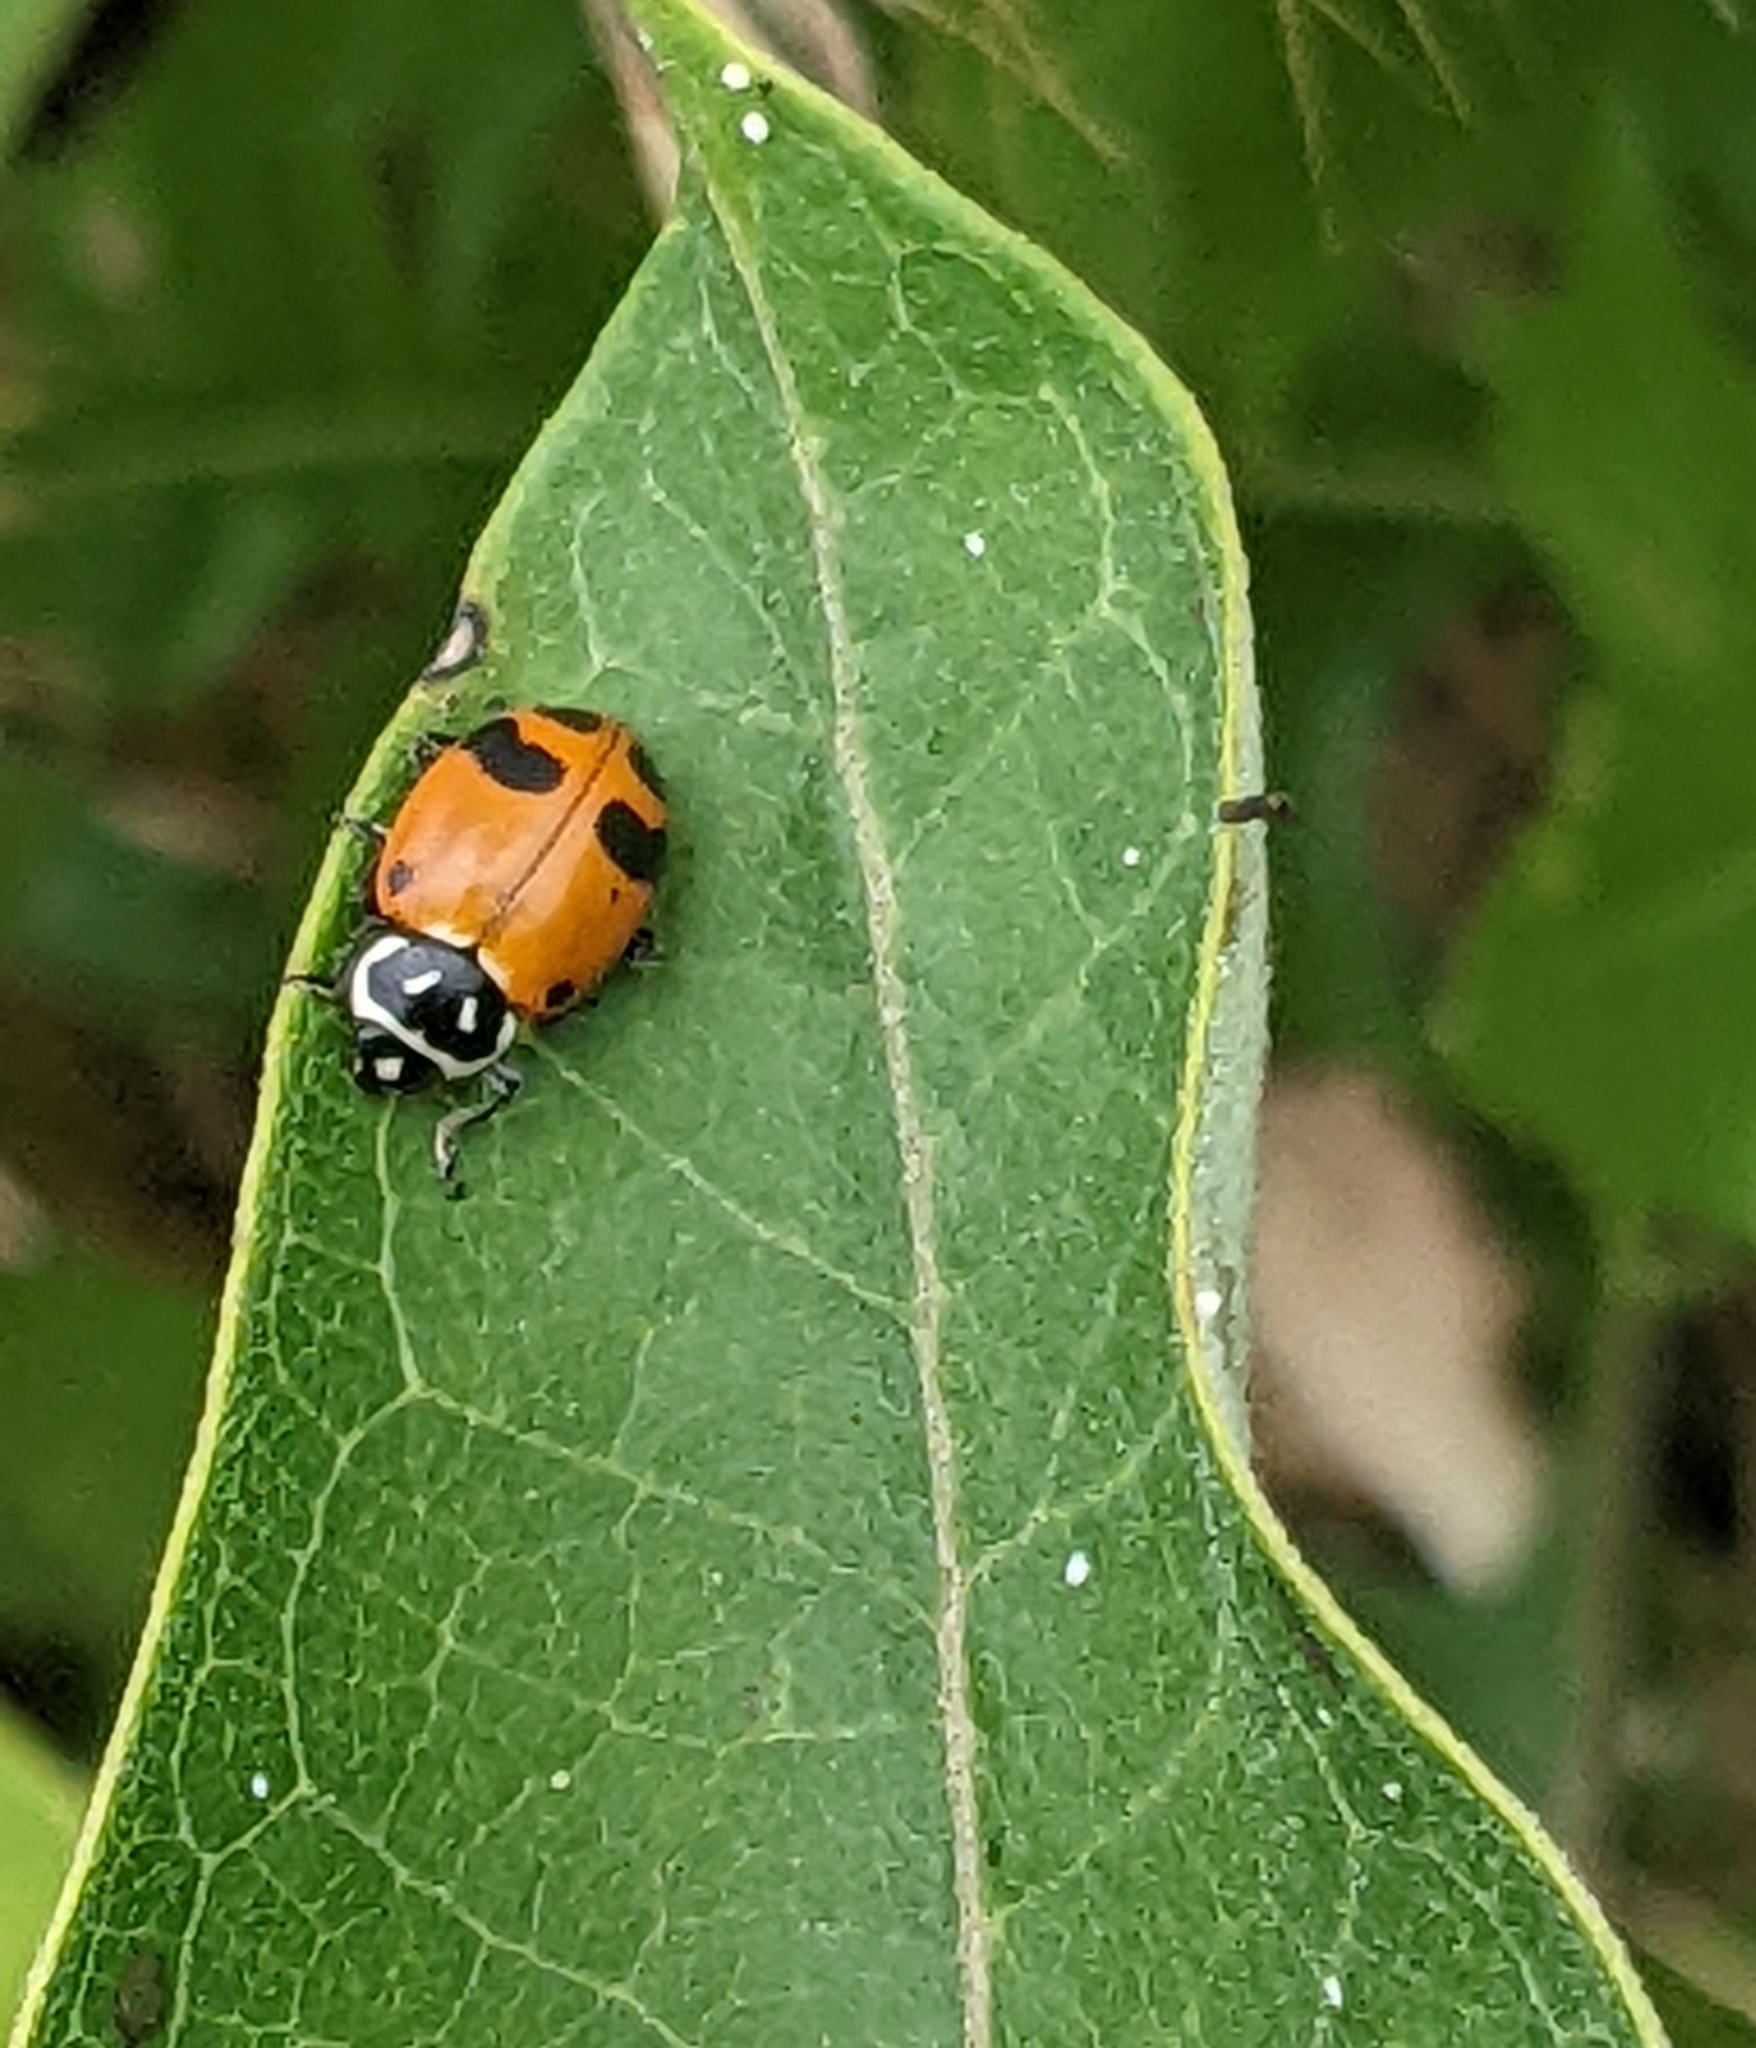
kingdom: Animalia
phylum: Arthropoda
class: Insecta
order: Coleoptera
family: Coccinellidae
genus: Hippodamia
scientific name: Hippodamia glacialis
